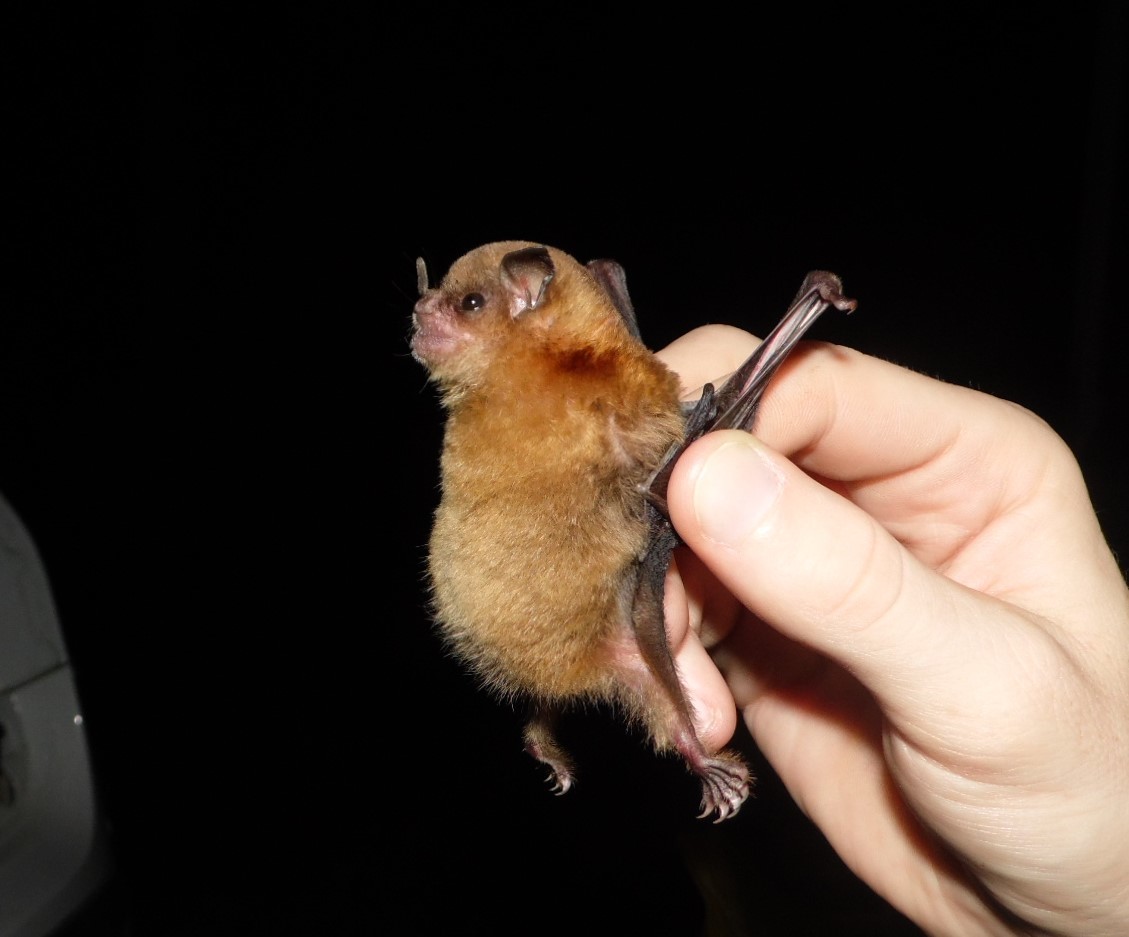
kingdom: Animalia
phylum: Chordata
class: Mammalia
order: Chiroptera
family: Phyllostomidae
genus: Sturnira
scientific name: Sturnira lilium
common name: Little yellow-shouldered bat
